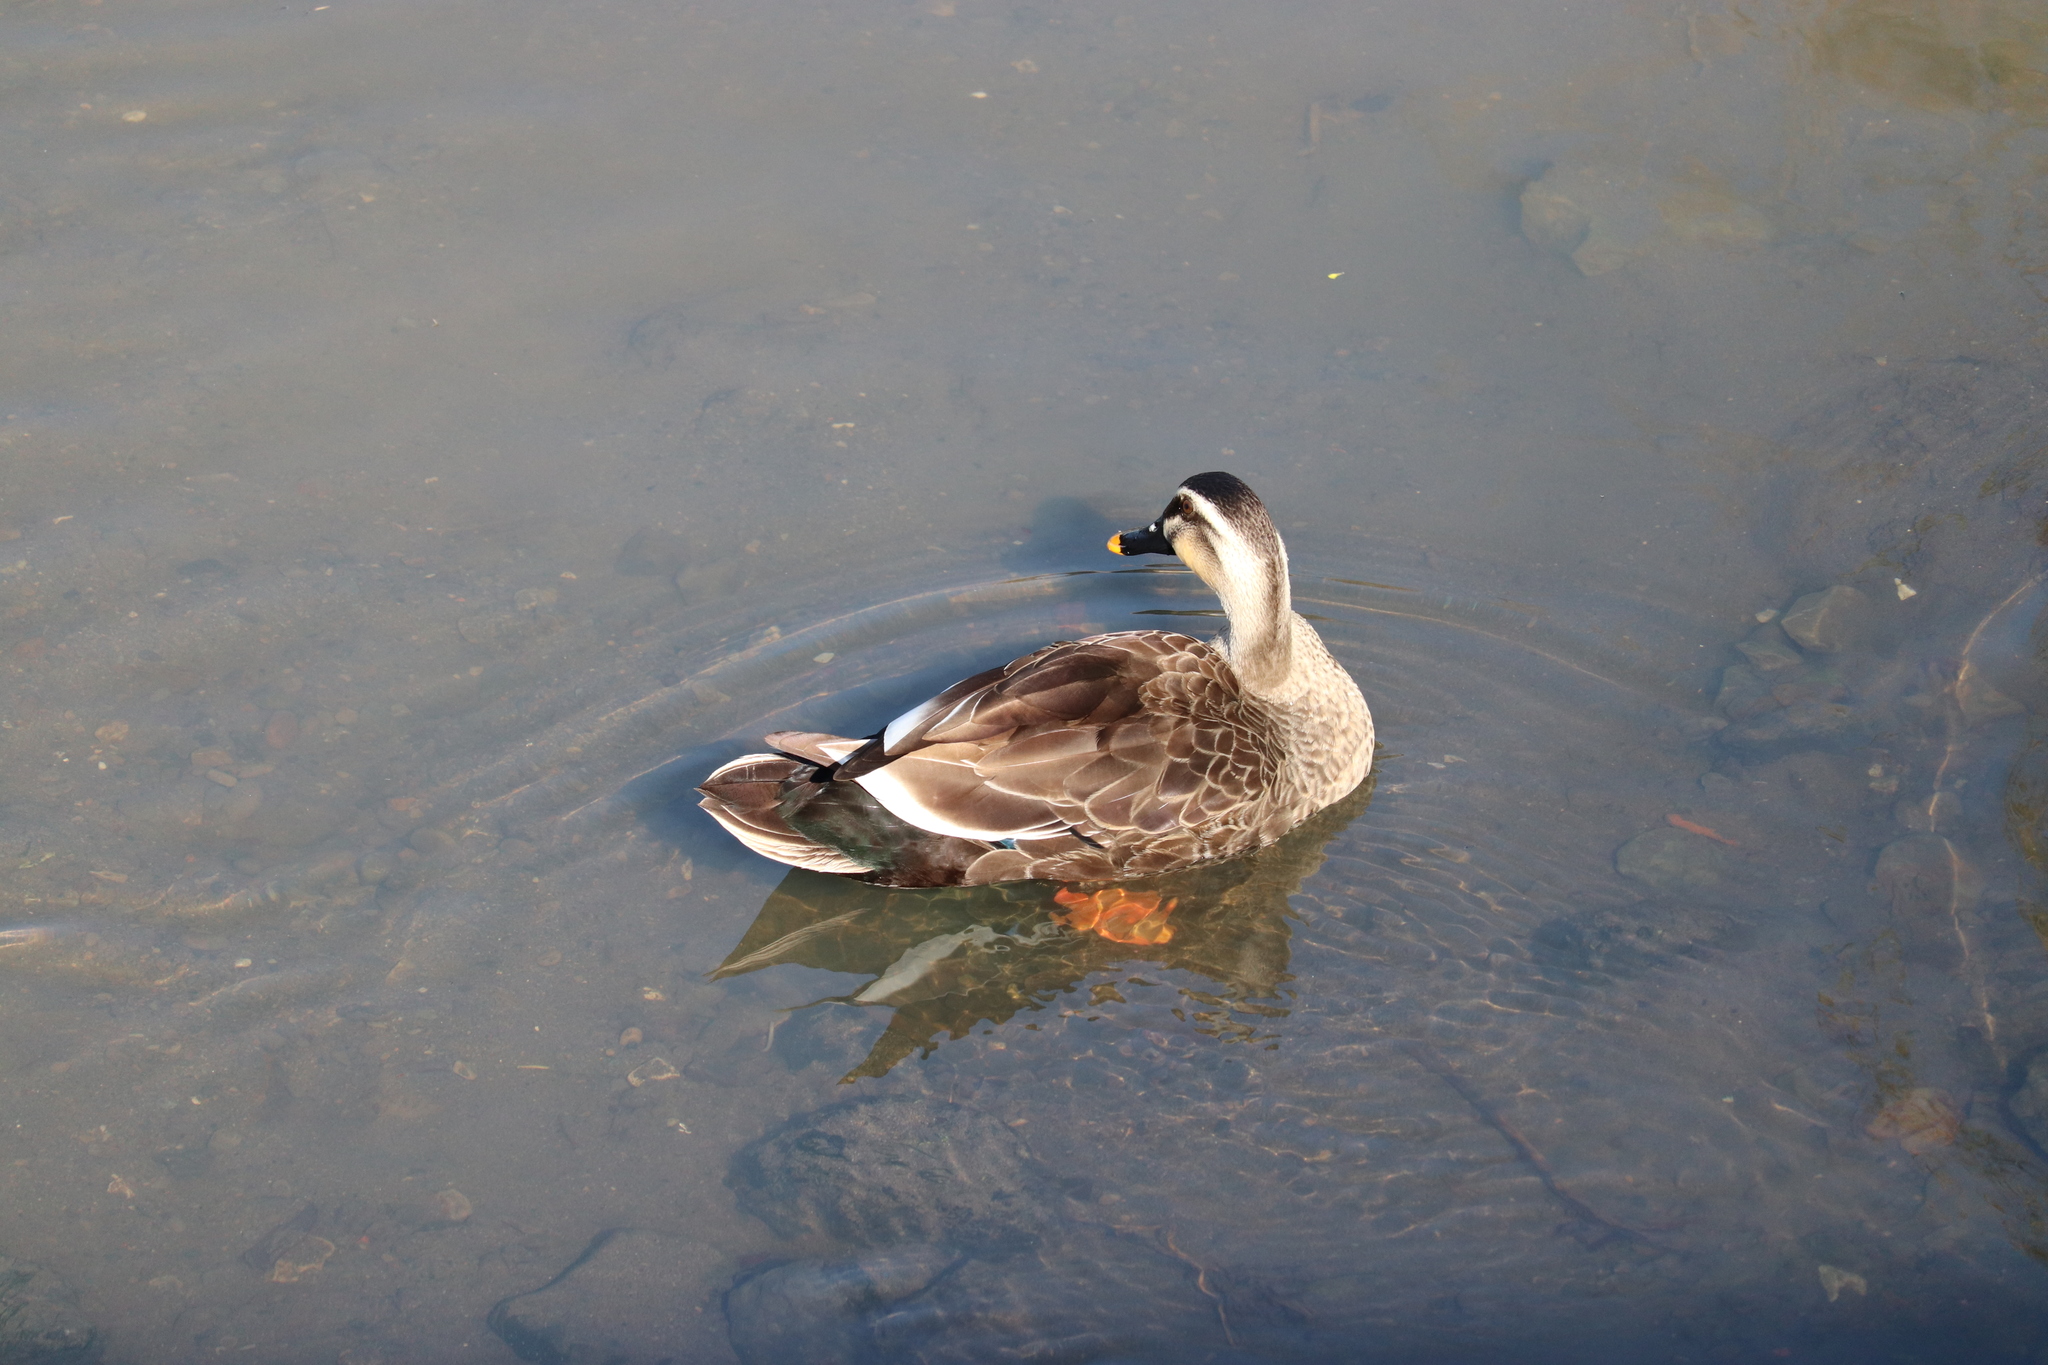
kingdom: Animalia
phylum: Chordata
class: Aves
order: Anseriformes
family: Anatidae
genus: Anas
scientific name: Anas zonorhyncha
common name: Eastern spot-billed duck
